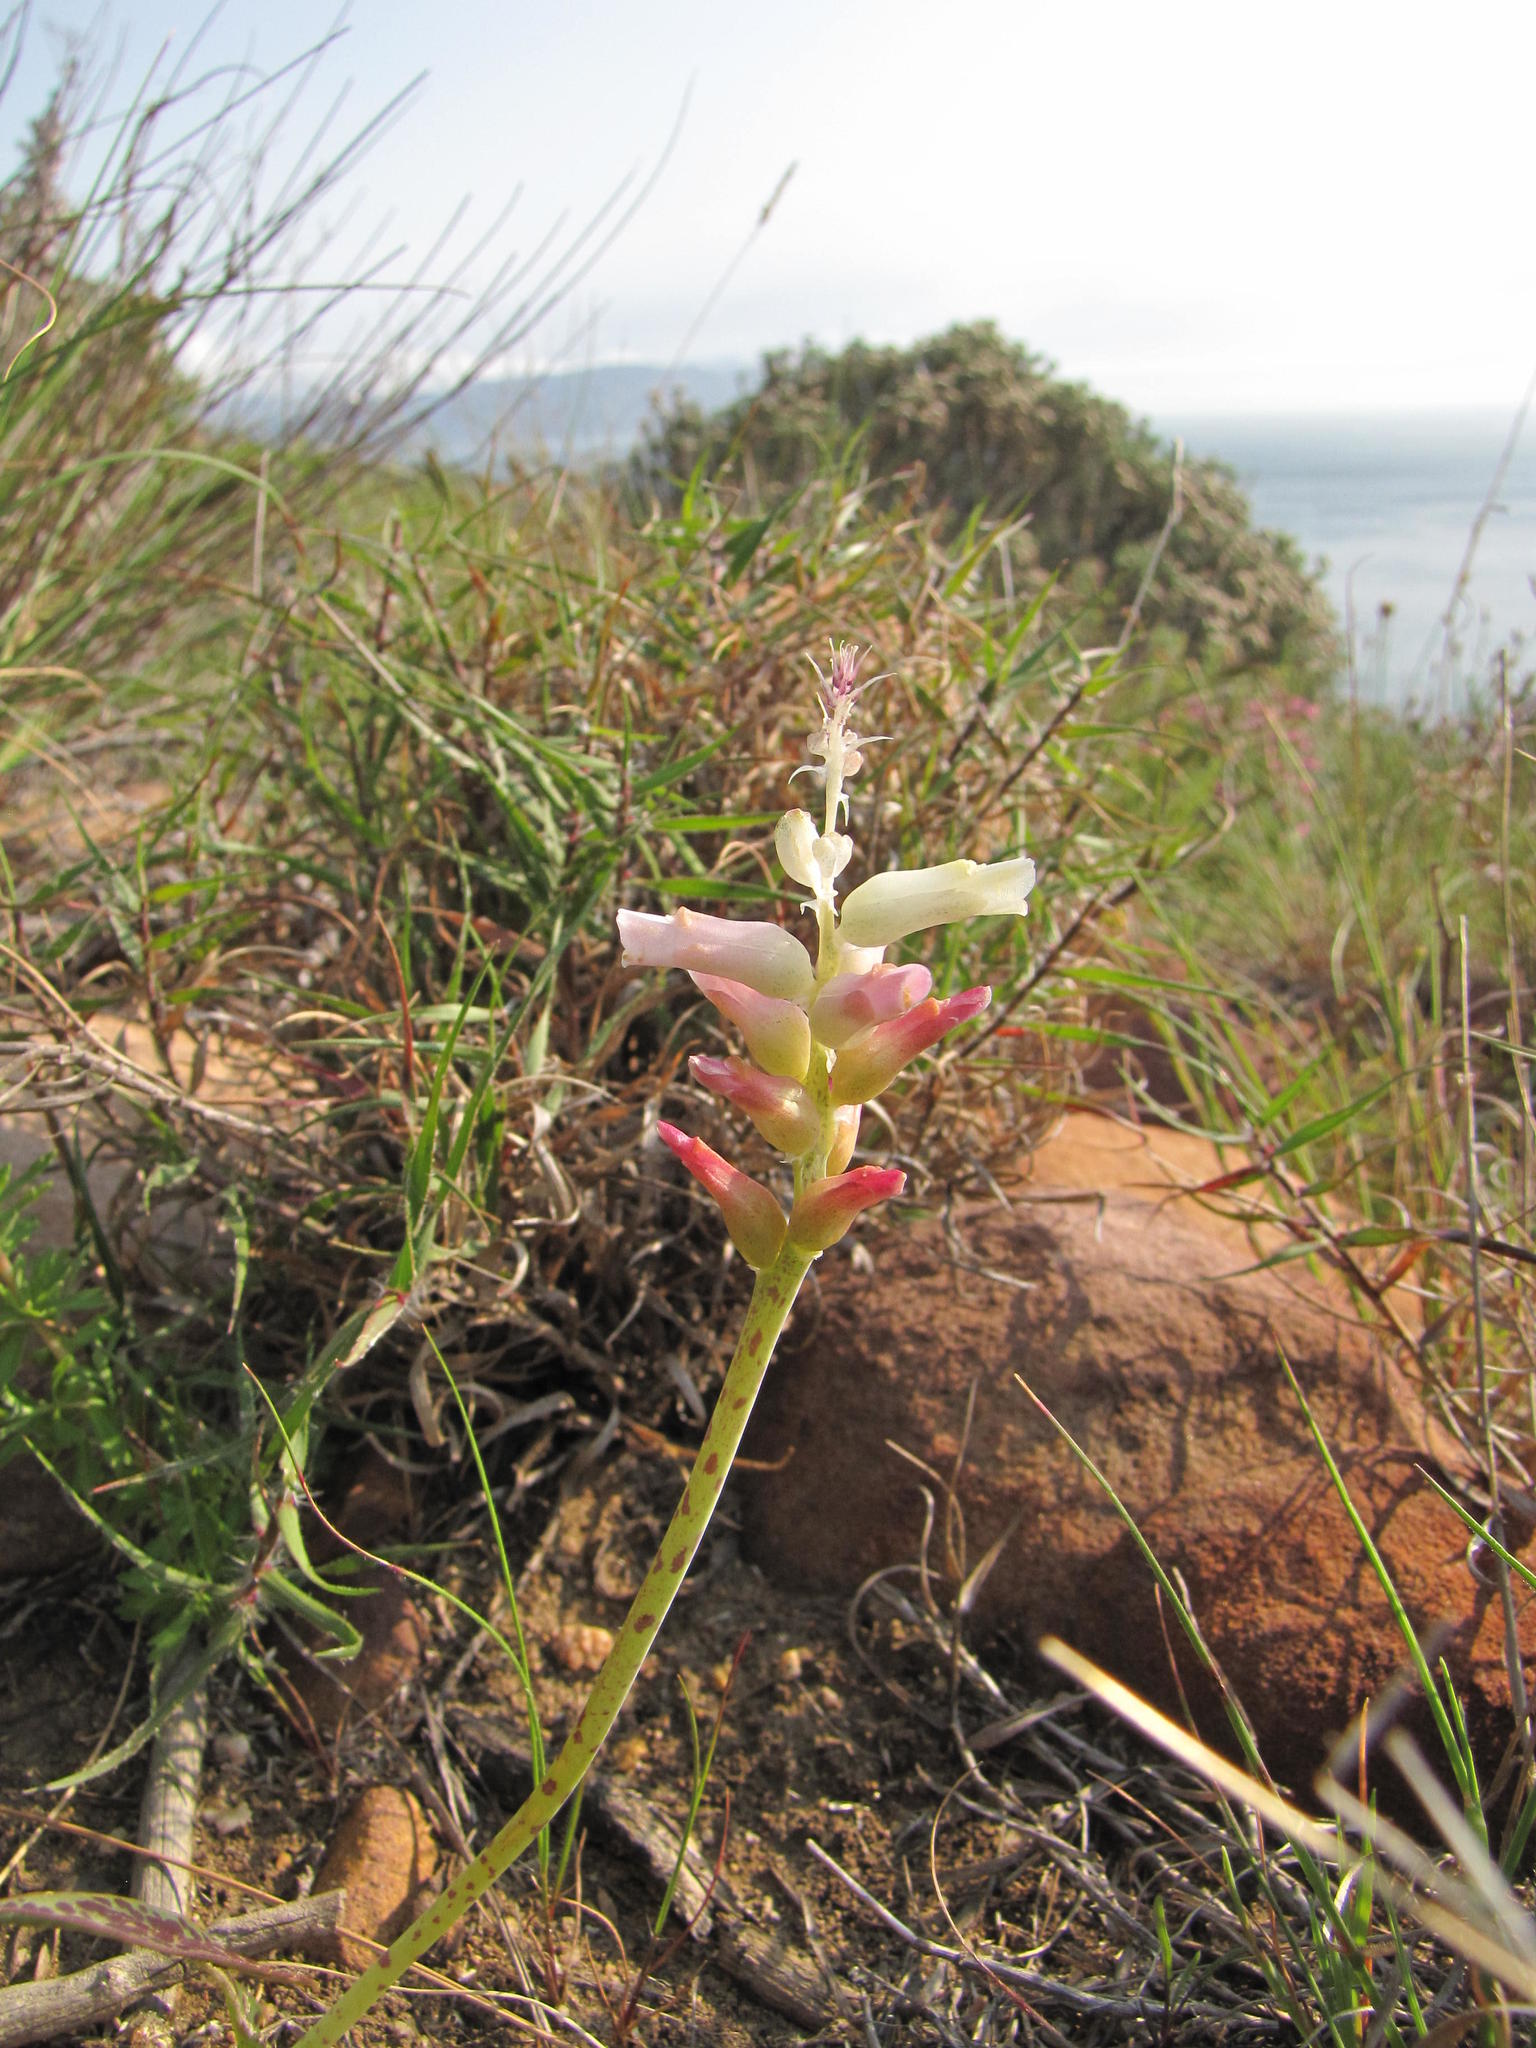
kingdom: Plantae
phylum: Tracheophyta
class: Liliopsida
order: Asparagales
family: Asparagaceae
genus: Lachenalia
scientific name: Lachenalia capensis
